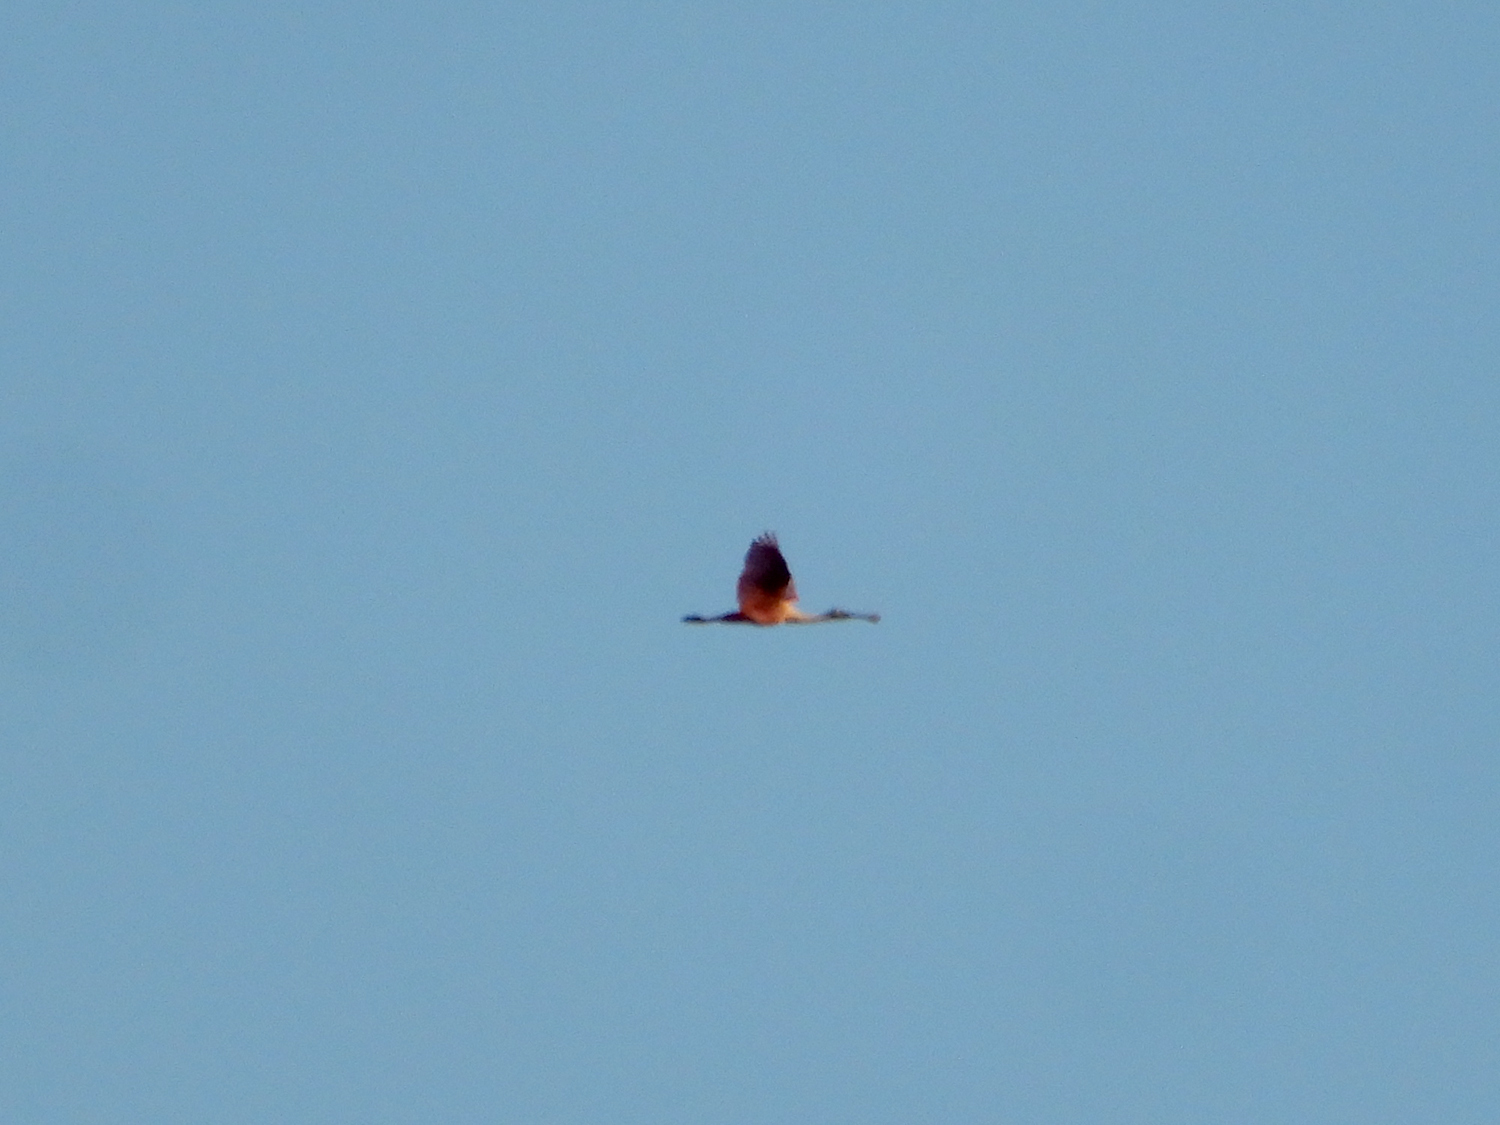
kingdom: Animalia
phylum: Chordata
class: Aves
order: Pelecaniformes
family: Threskiornithidae
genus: Platalea
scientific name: Platalea ajaja
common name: Roseate spoonbill
